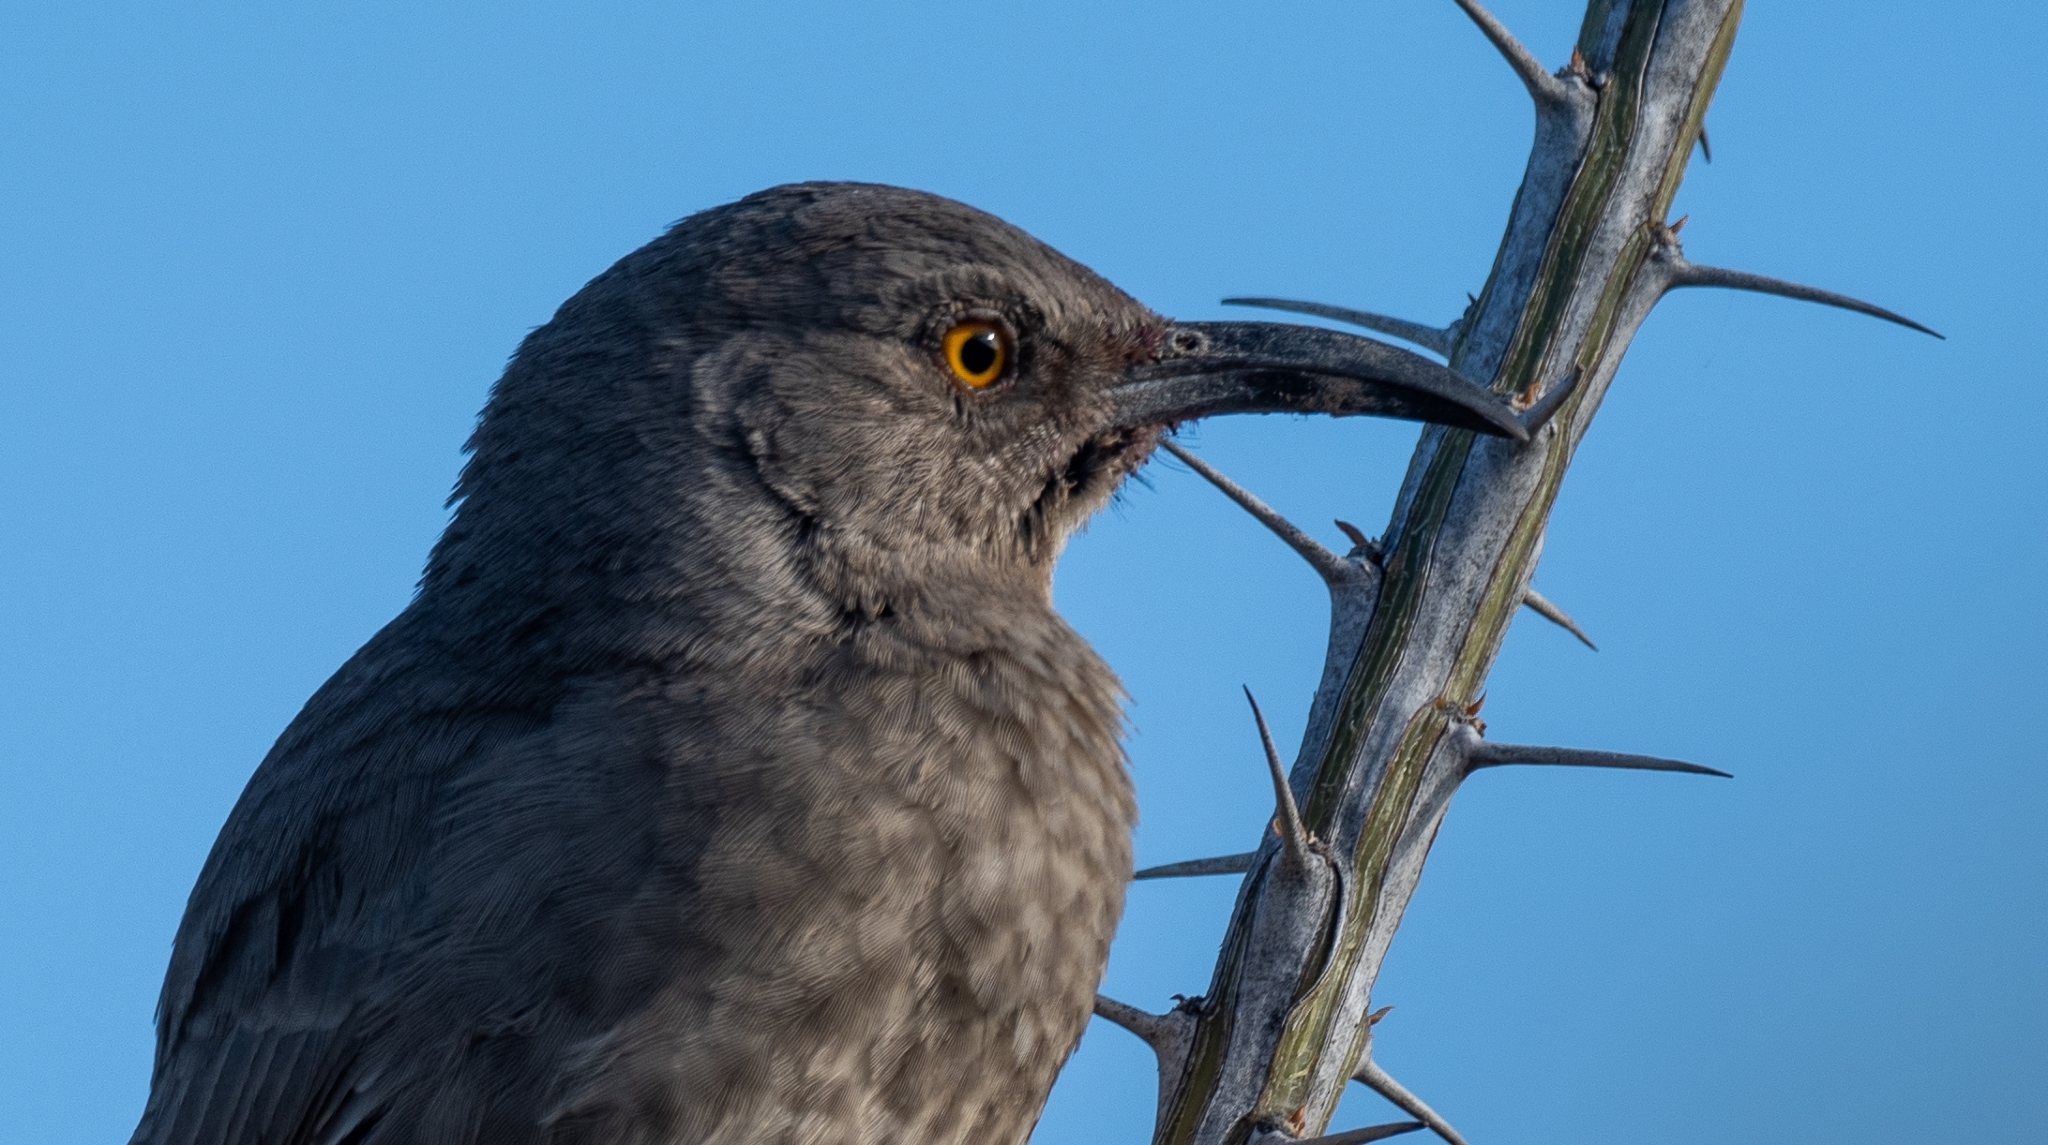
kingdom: Animalia
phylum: Chordata
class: Aves
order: Passeriformes
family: Mimidae
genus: Toxostoma
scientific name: Toxostoma curvirostre
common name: Curve-billed thrasher
